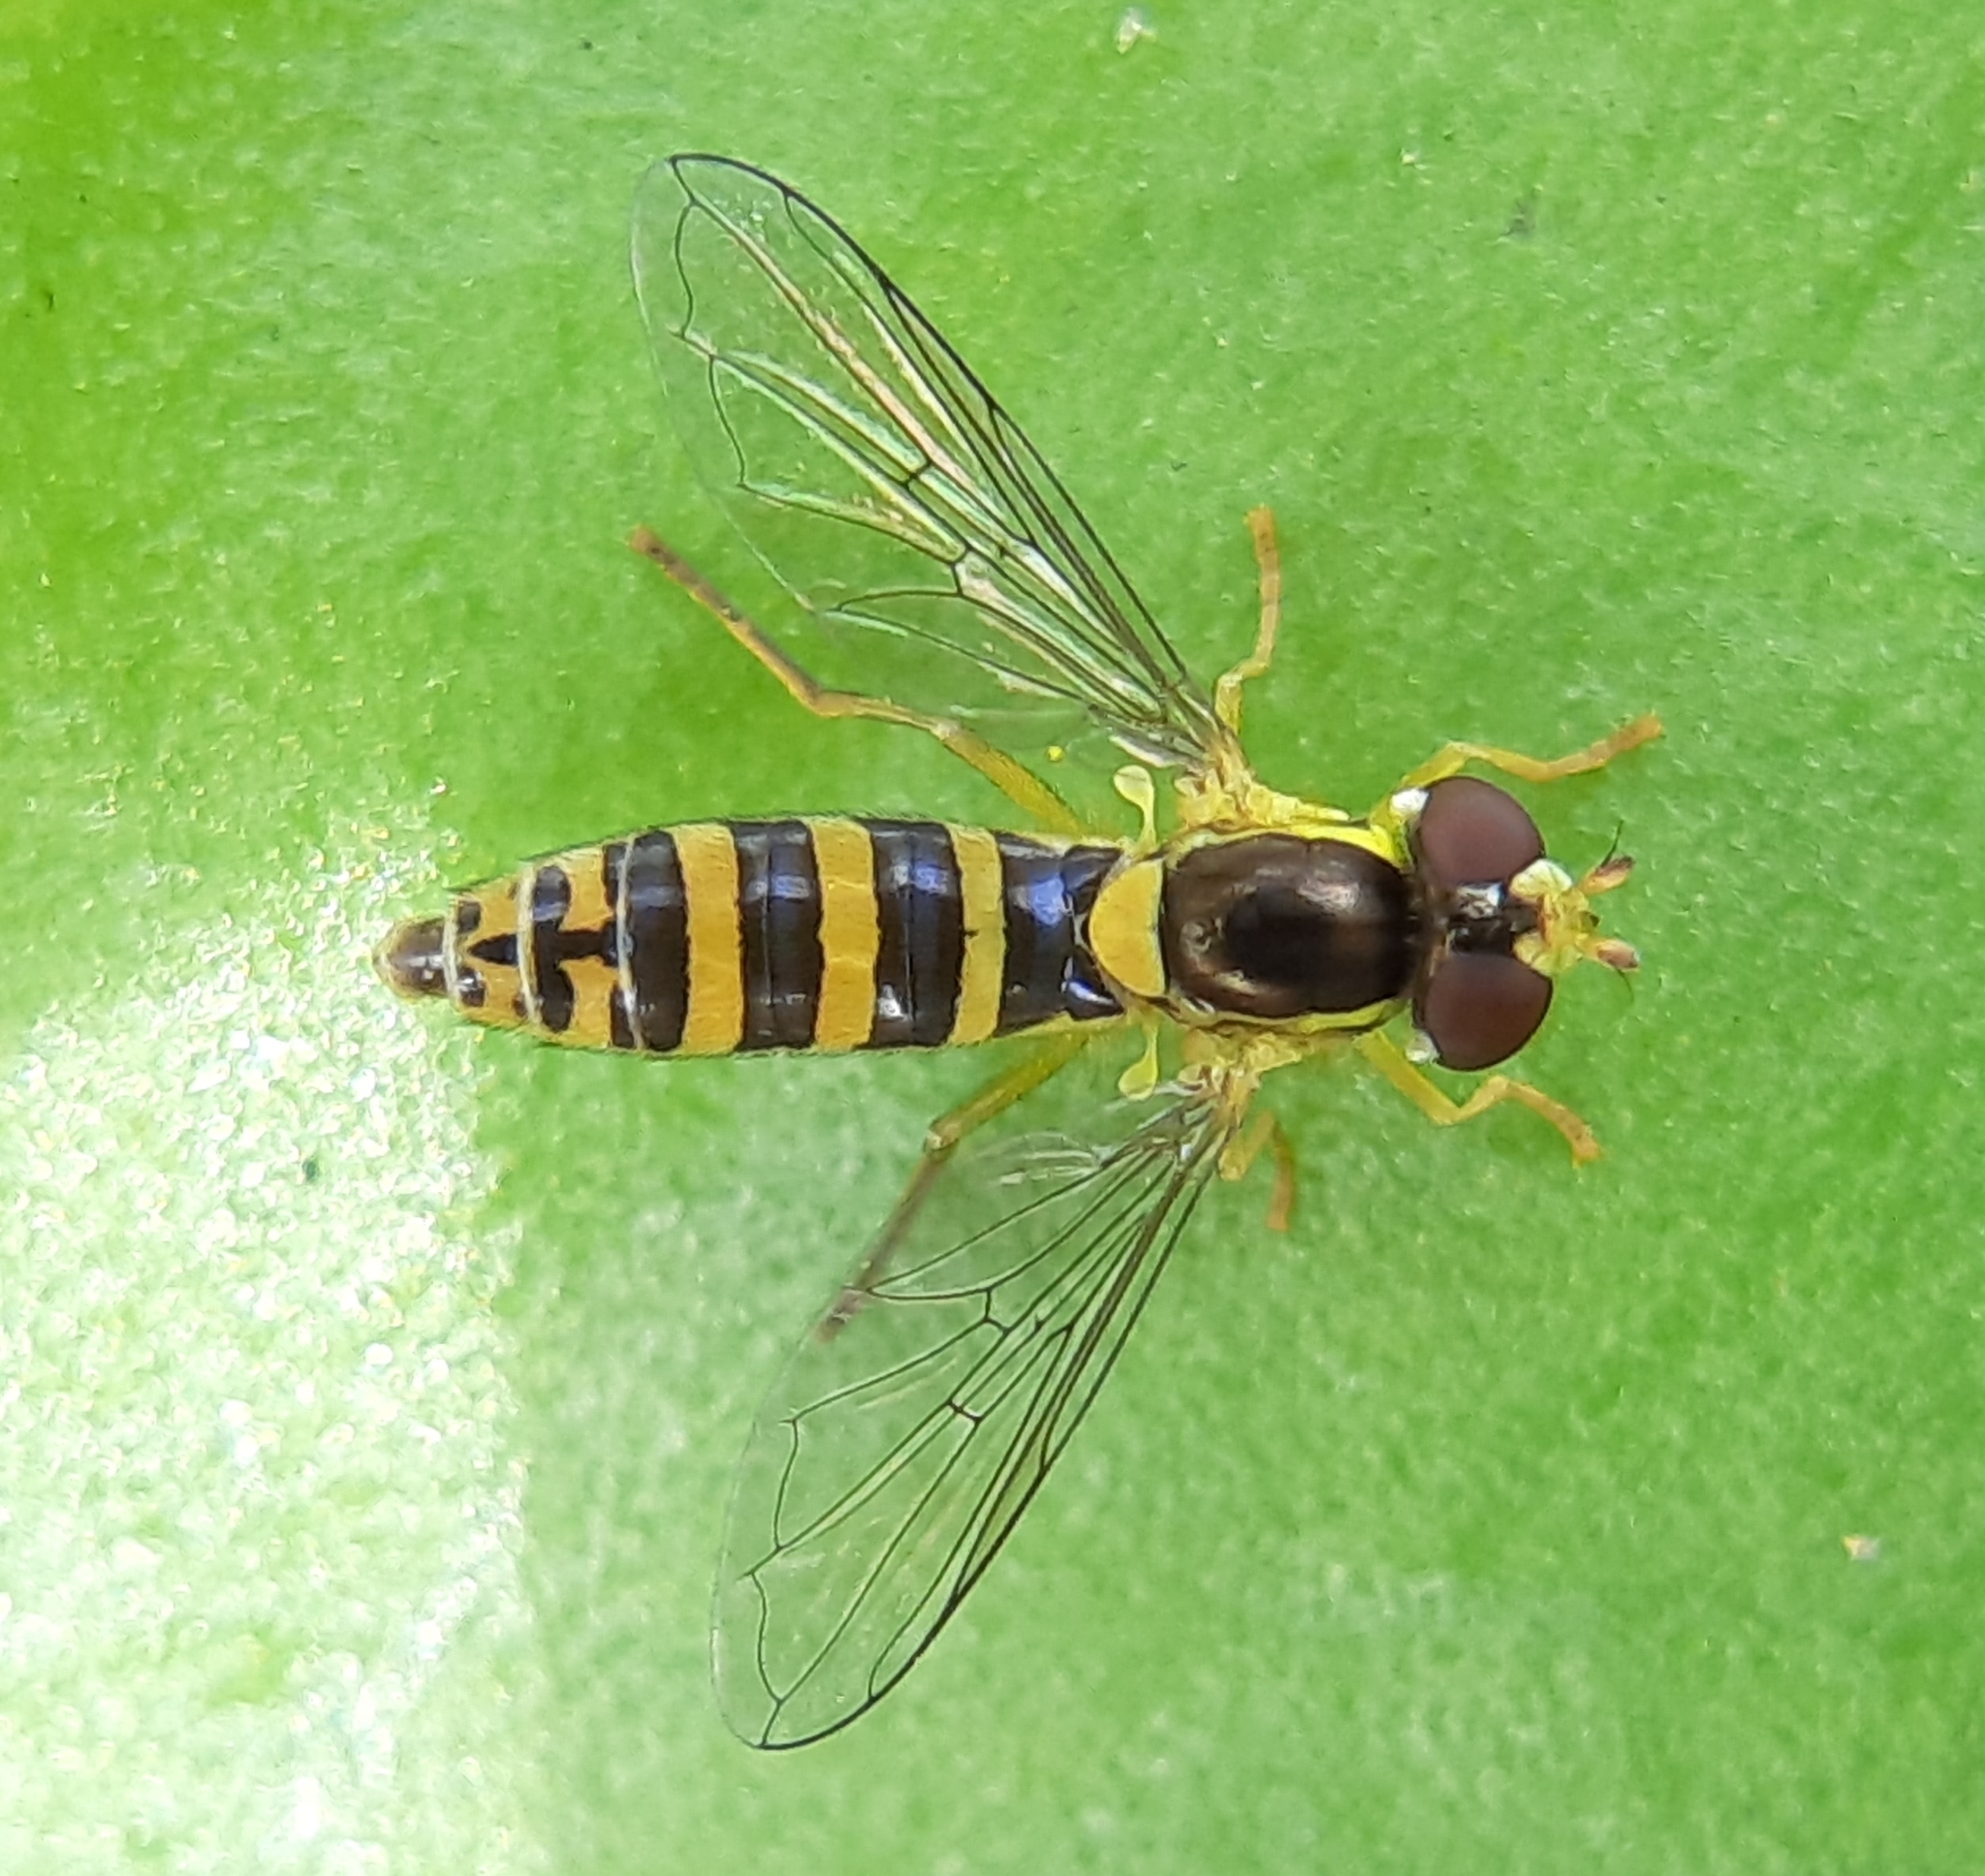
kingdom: Animalia
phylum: Arthropoda
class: Insecta
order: Diptera
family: Syrphidae
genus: Sphaerophoria
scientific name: Sphaerophoria
